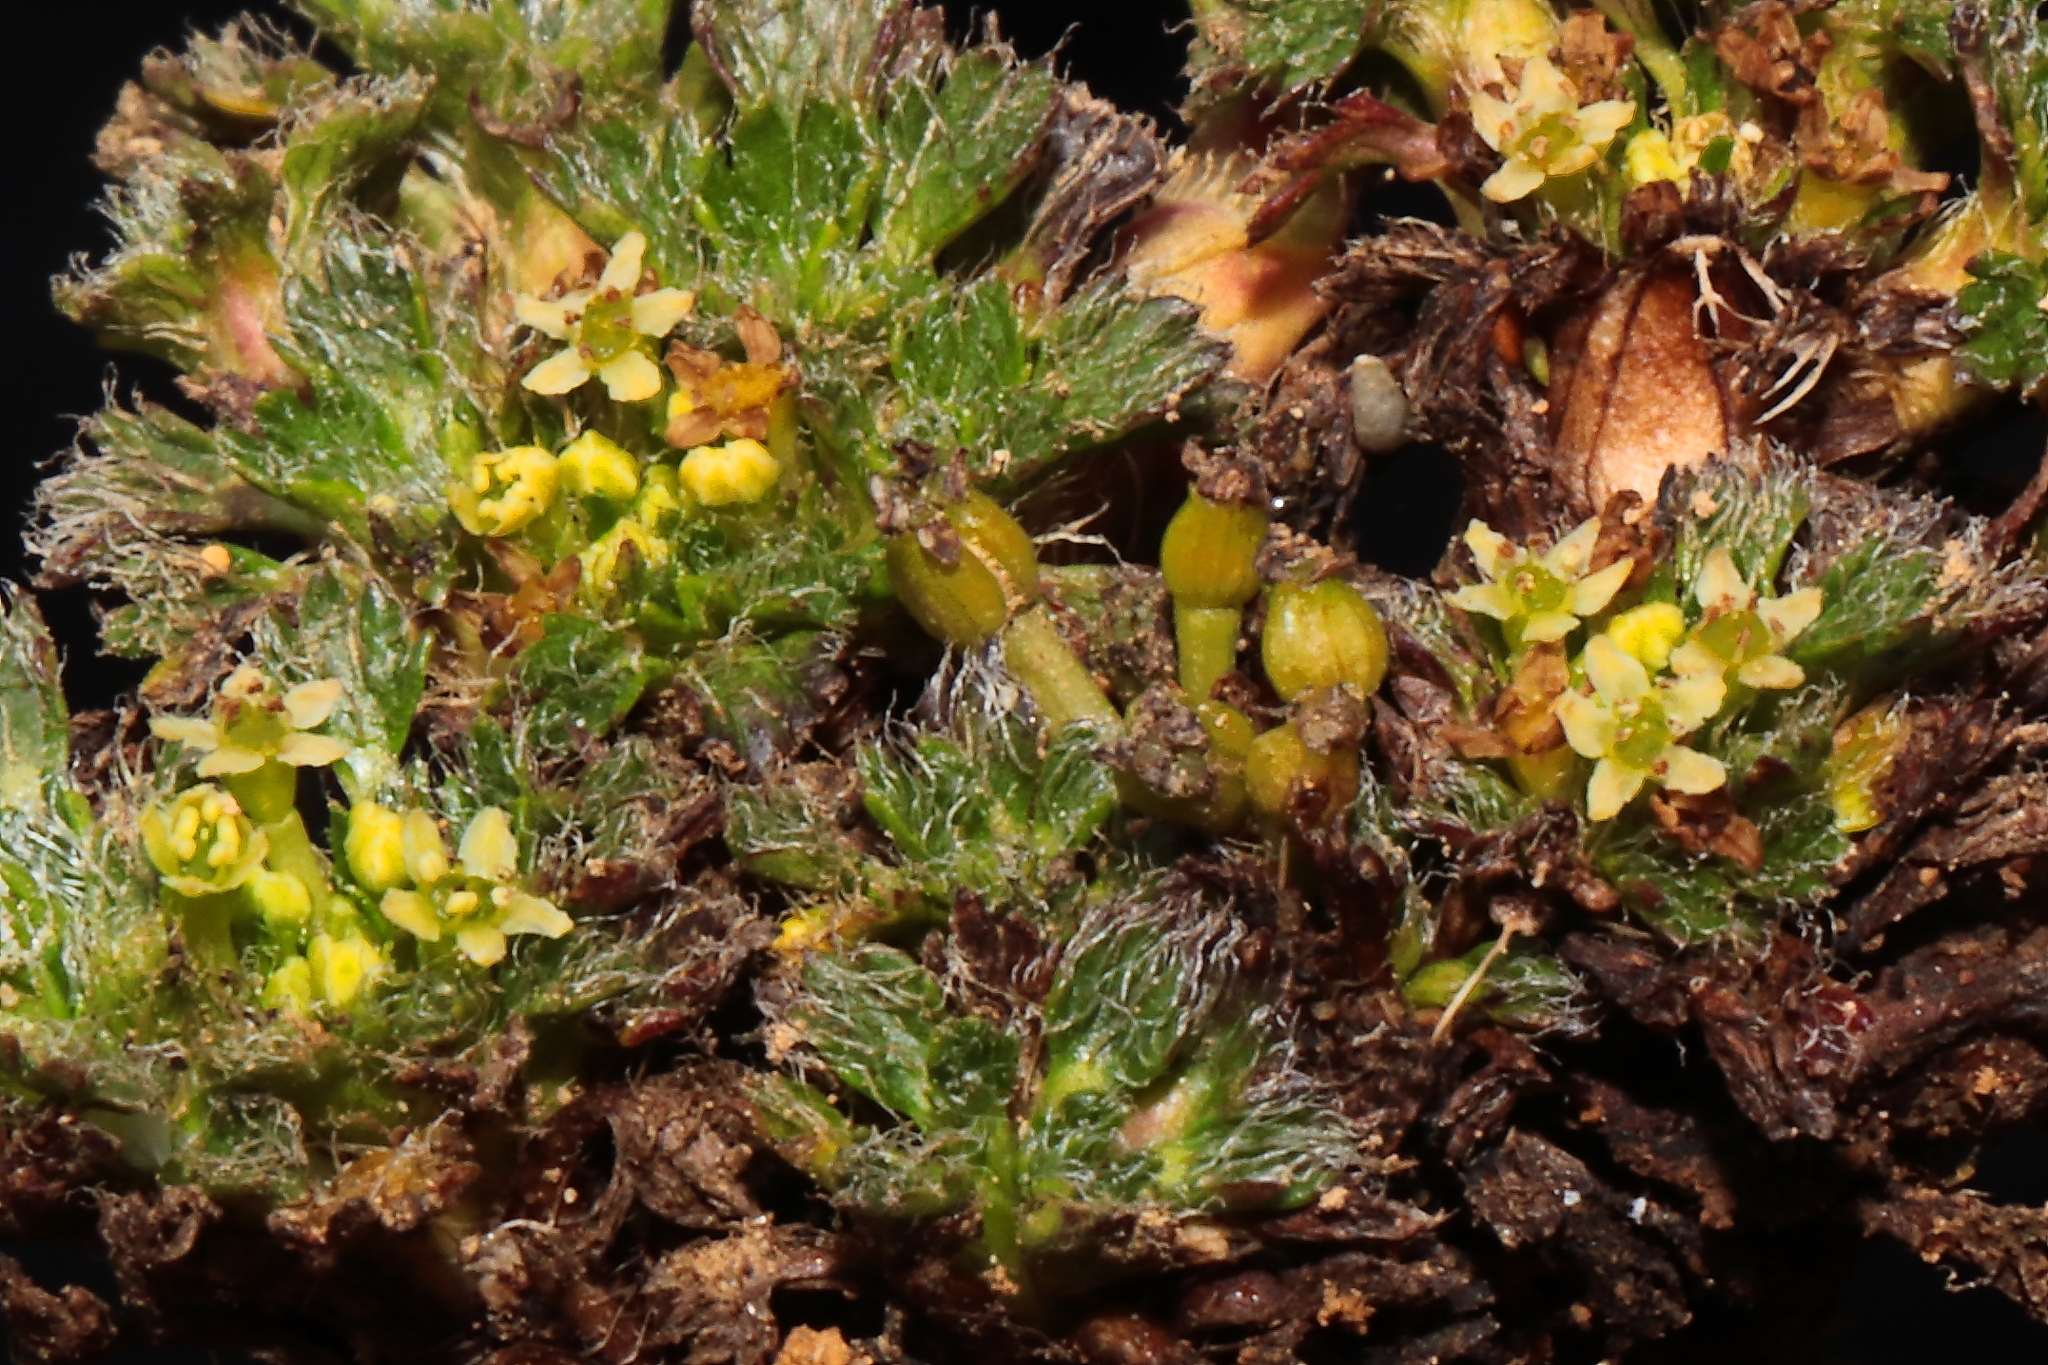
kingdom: Plantae
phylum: Tracheophyta
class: Magnoliopsida
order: Apiales
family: Apiaceae
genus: Azorella
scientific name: Azorella multifida
